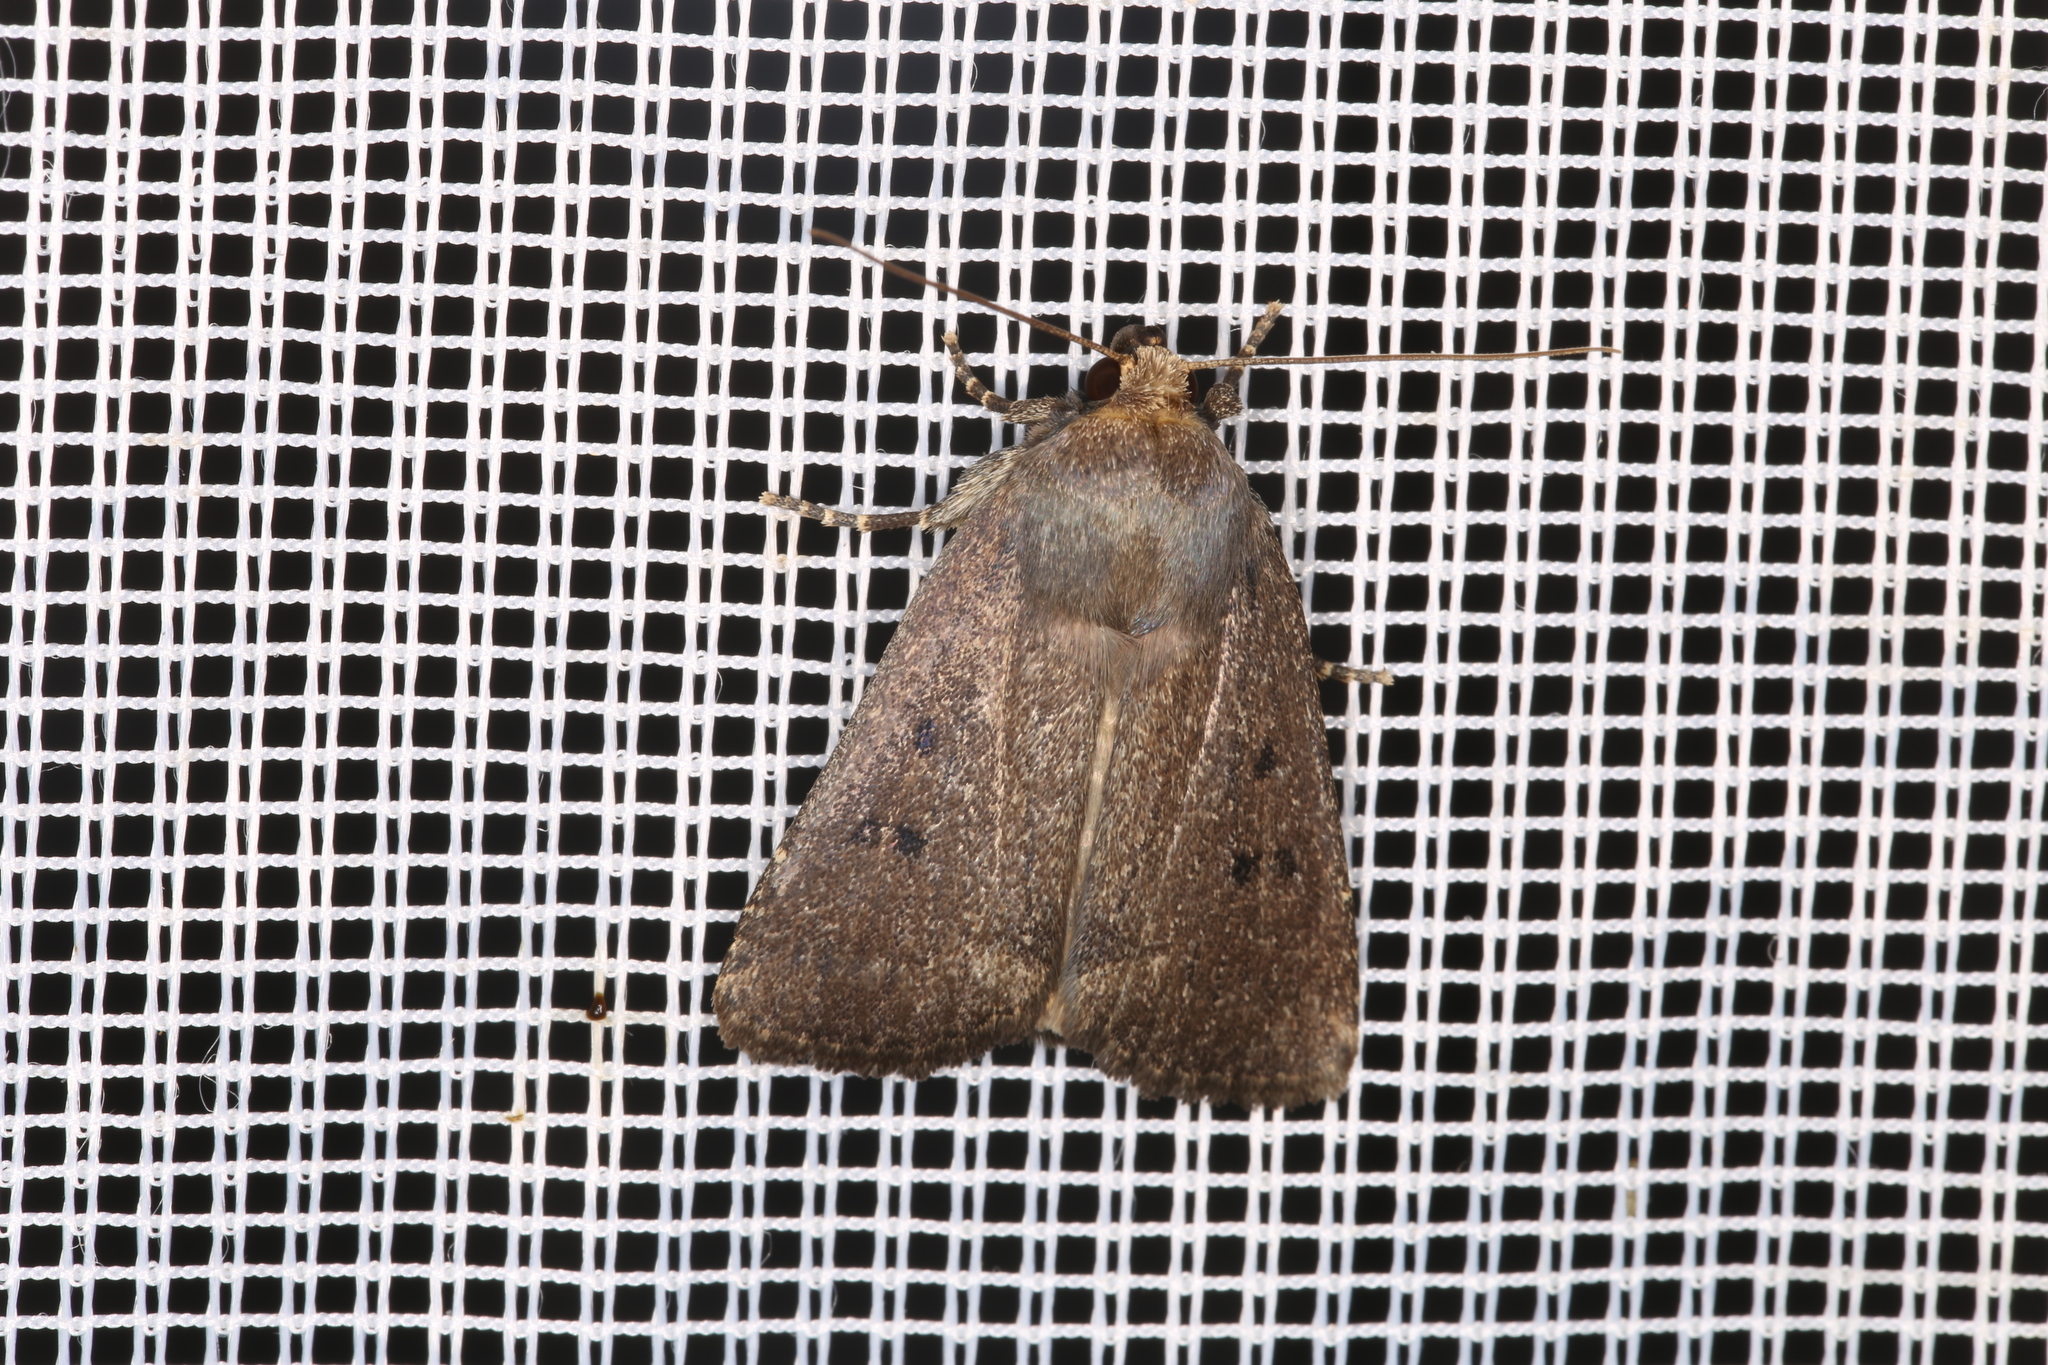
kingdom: Animalia
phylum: Arthropoda
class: Insecta
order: Lepidoptera
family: Noctuidae
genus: Amphipyra
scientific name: Amphipyra tragopoginis
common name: Mouse moth
